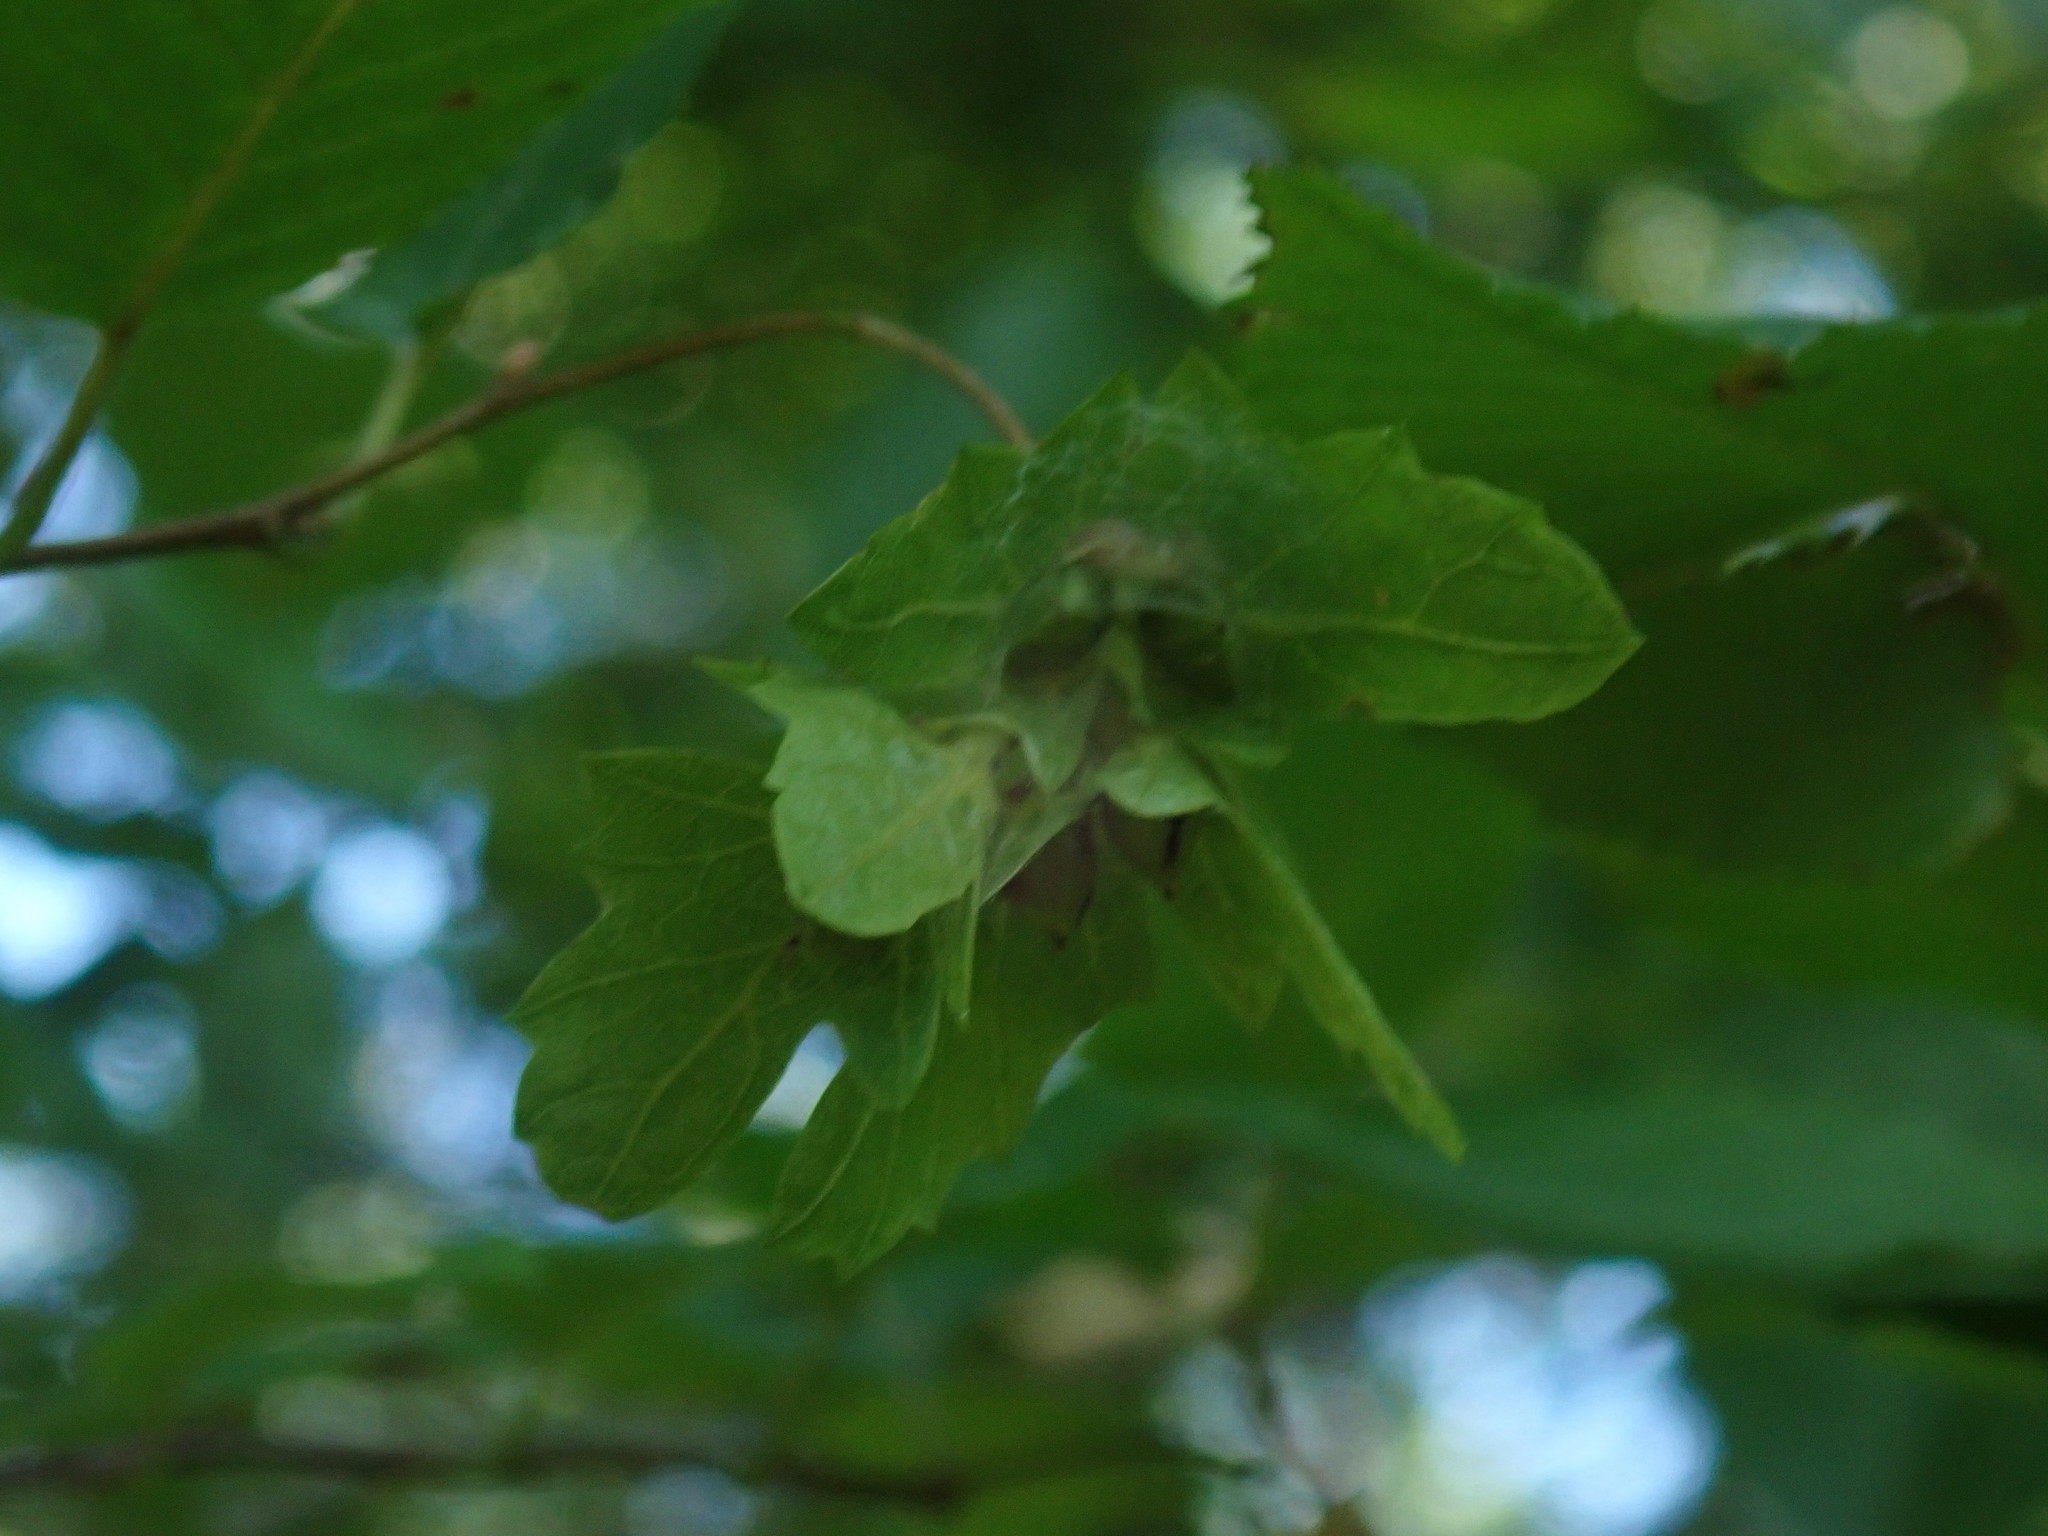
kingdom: Plantae
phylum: Tracheophyta
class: Magnoliopsida
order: Fagales
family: Betulaceae
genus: Carpinus
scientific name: Carpinus caroliniana
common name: American hornbeam
